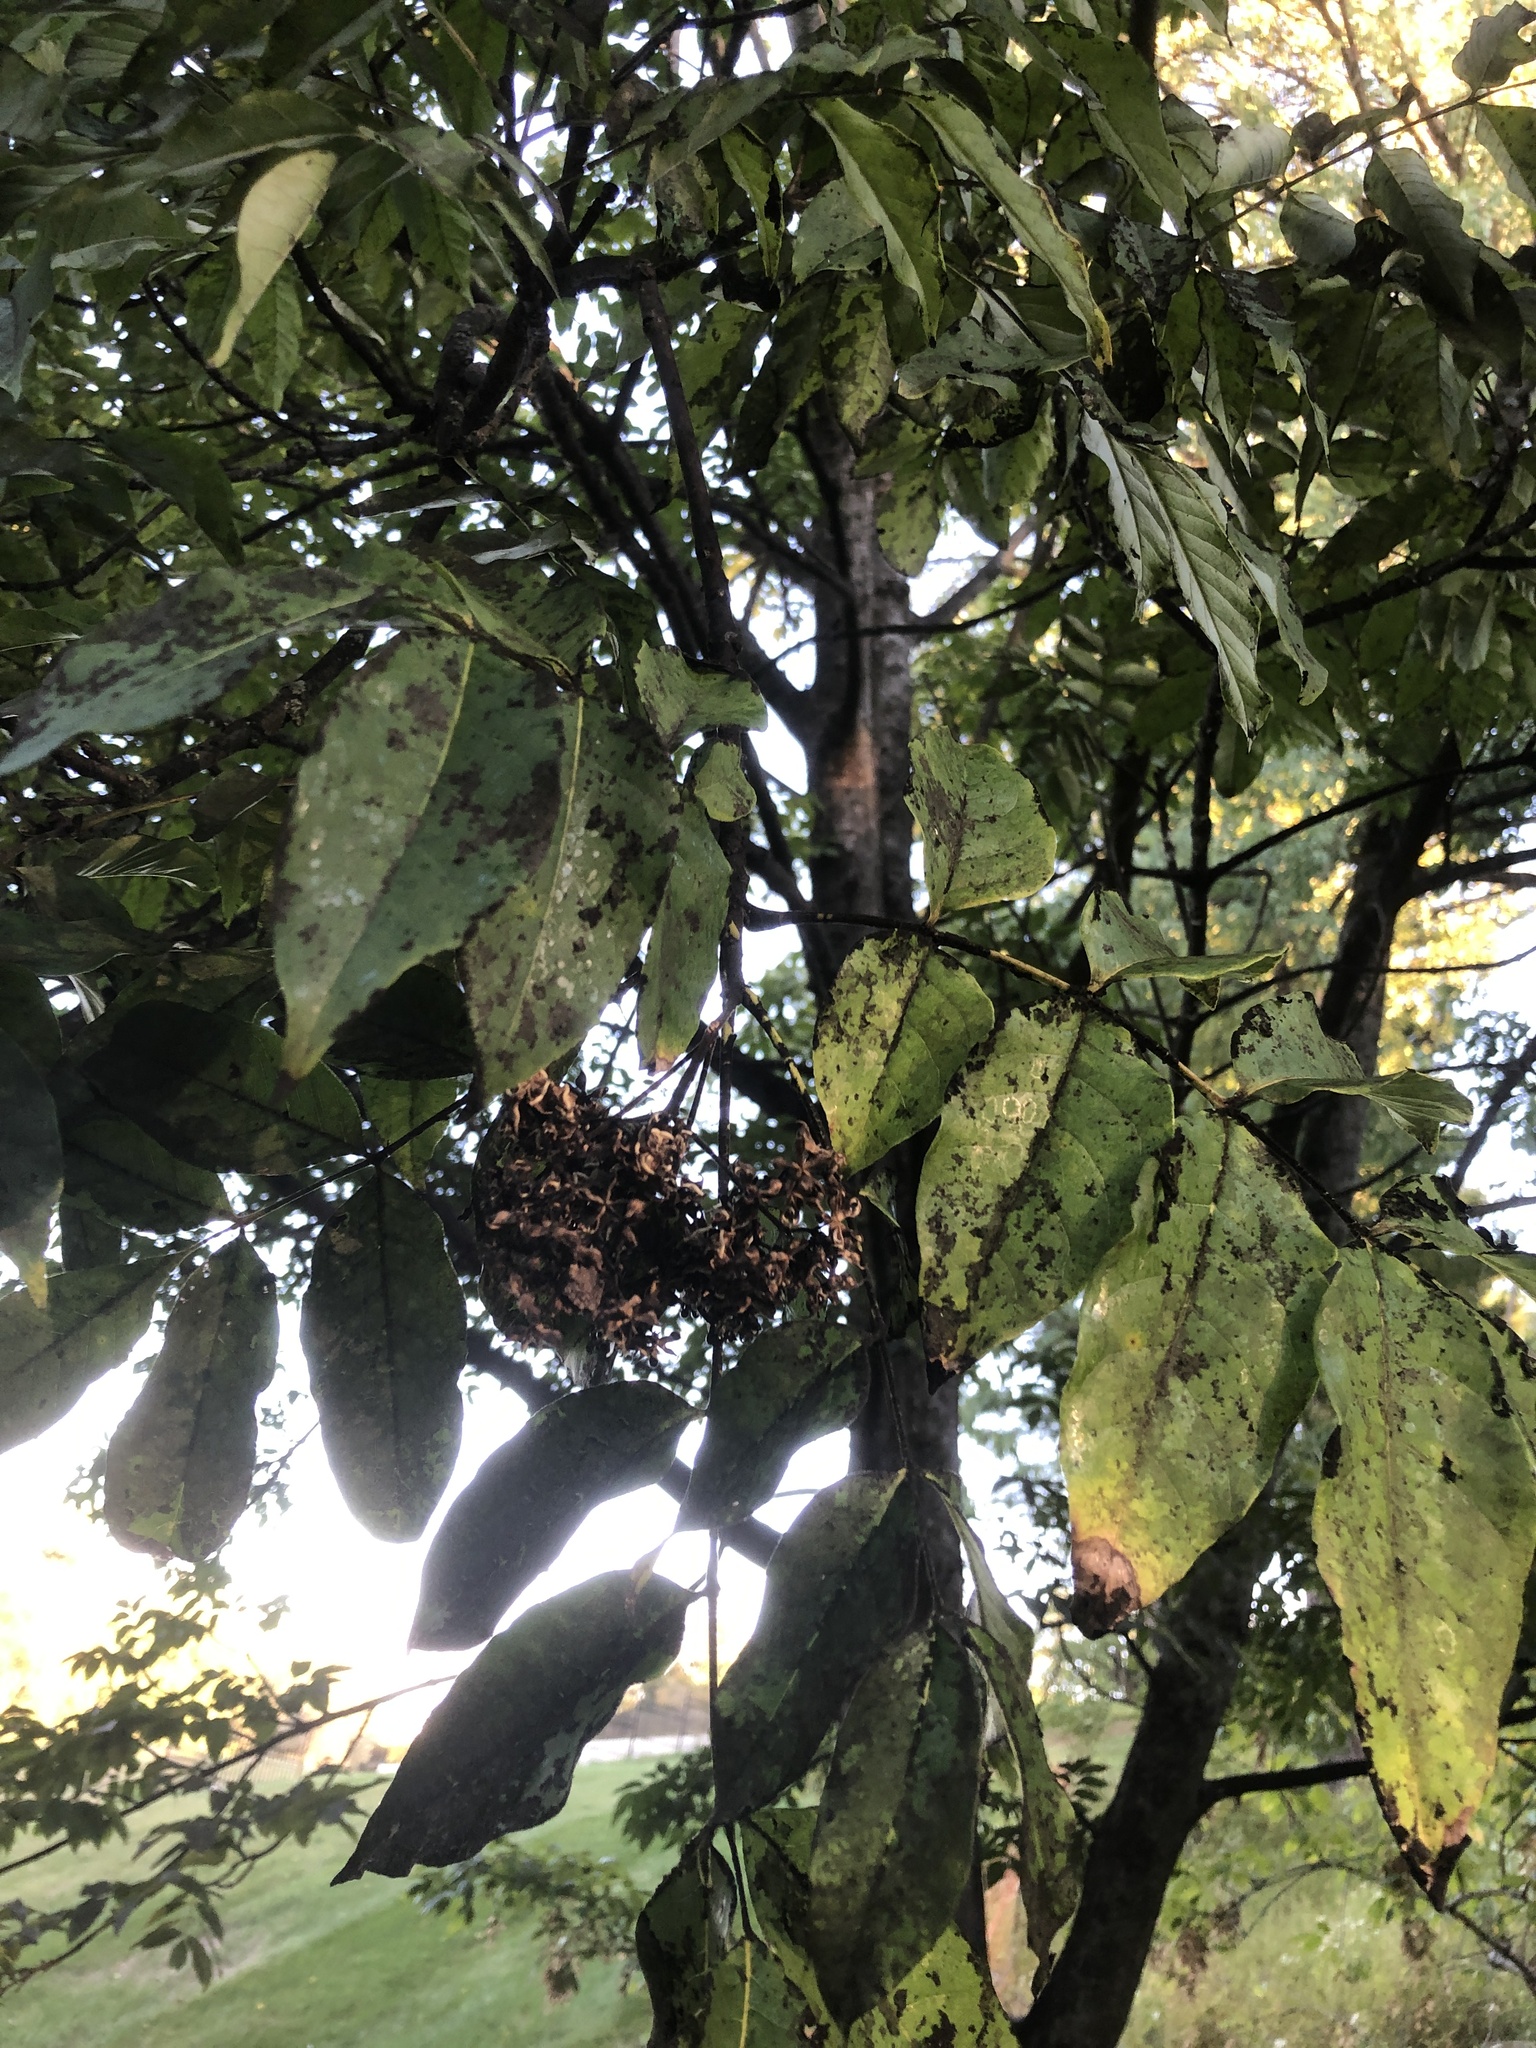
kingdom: Plantae
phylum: Tracheophyta
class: Magnoliopsida
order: Sapindales
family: Rutaceae
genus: Tetradium
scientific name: Tetradium daniellii
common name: Bee-bee tree
